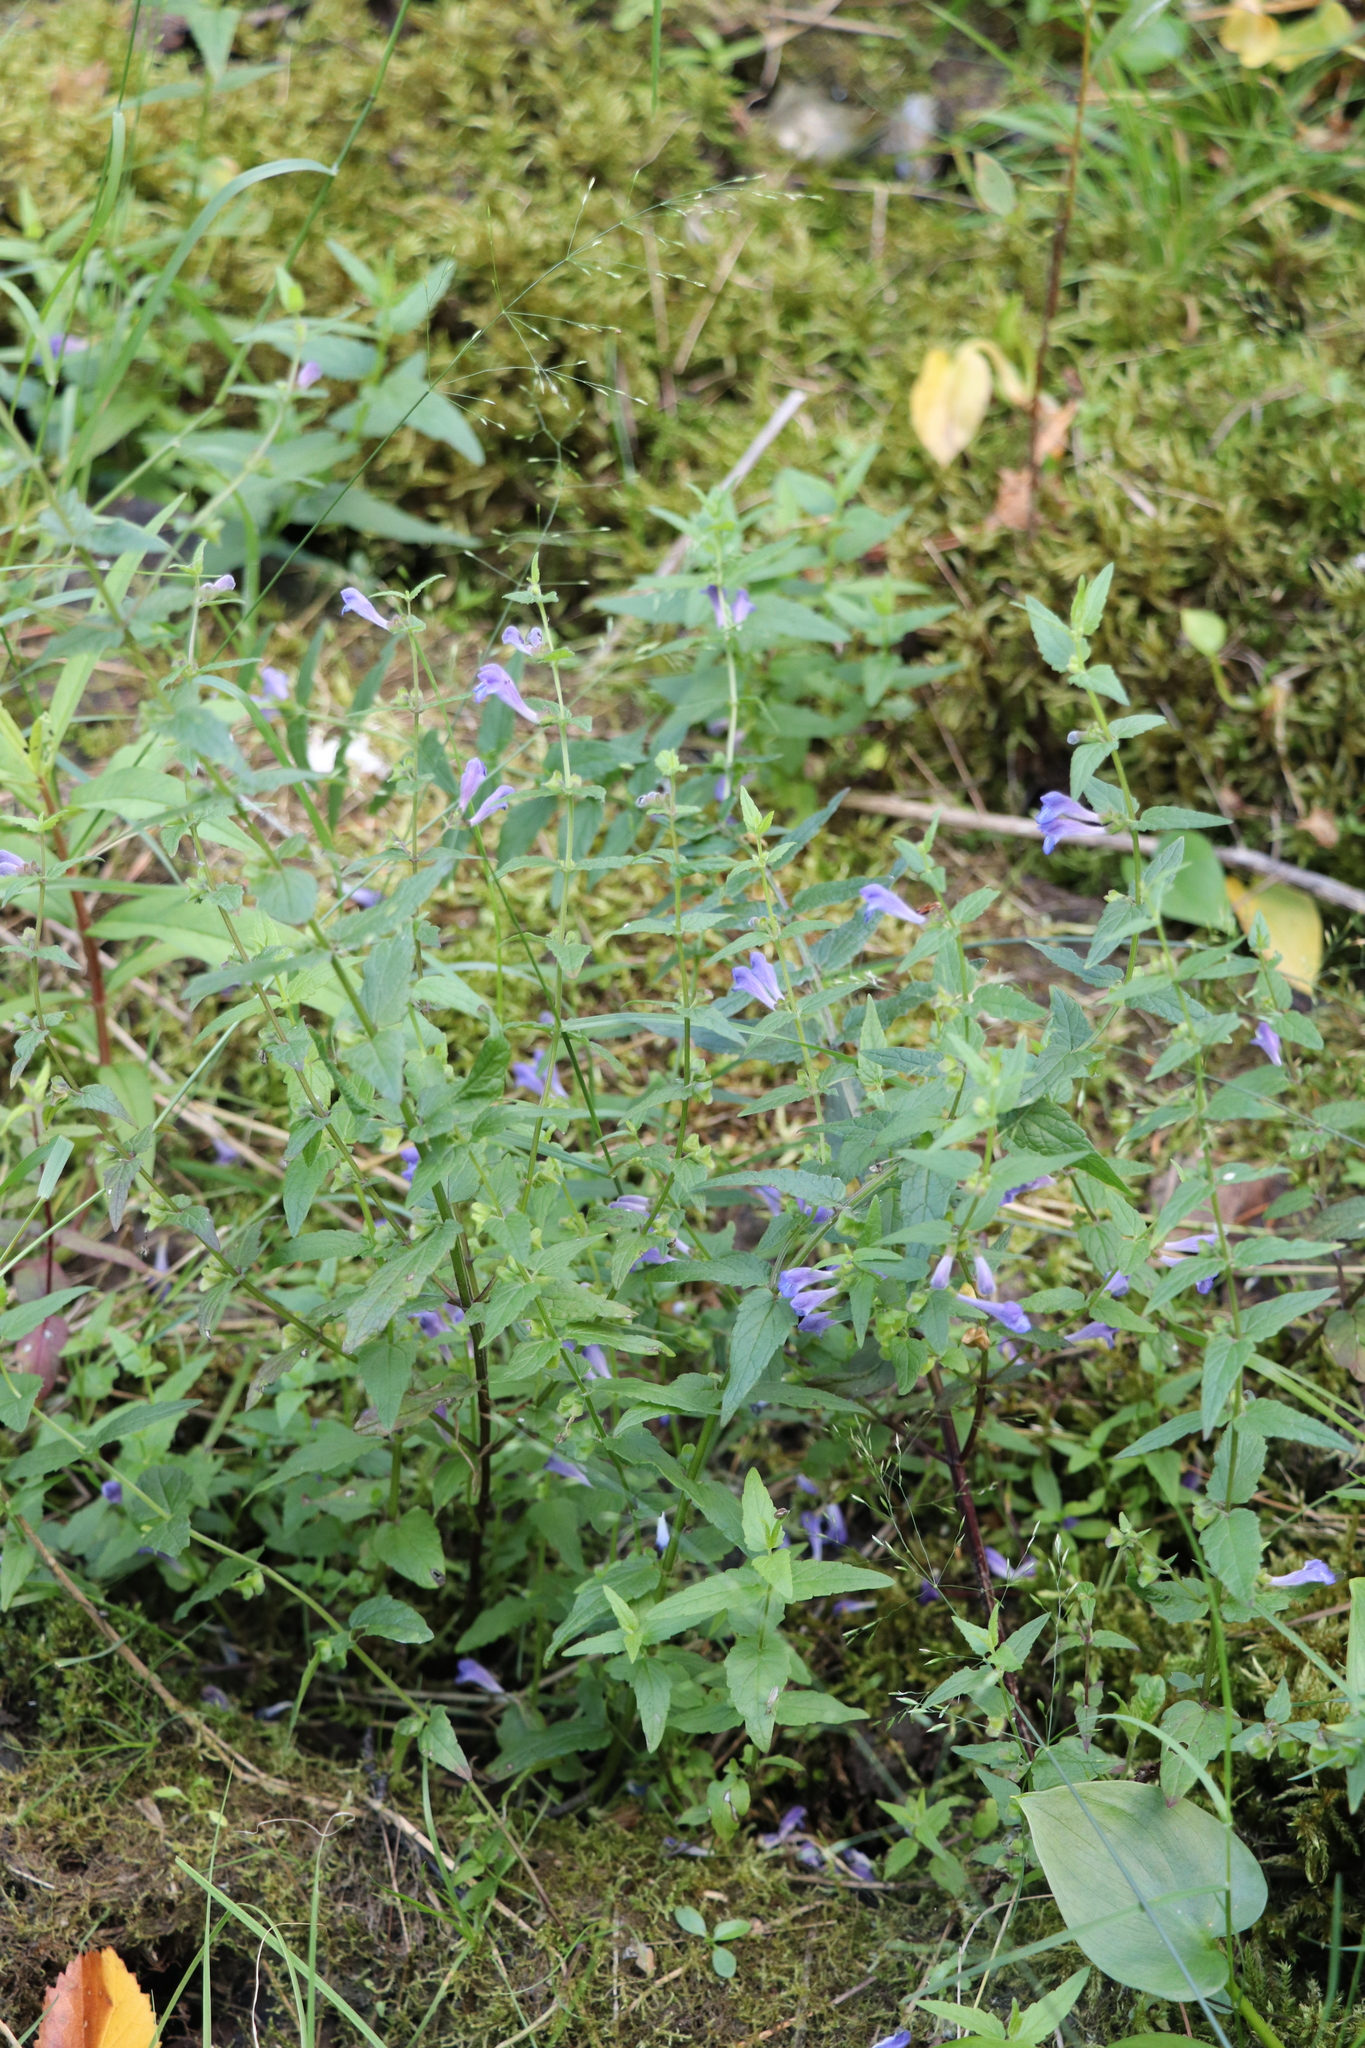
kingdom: Plantae
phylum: Tracheophyta
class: Magnoliopsida
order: Lamiales
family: Lamiaceae
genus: Scutellaria
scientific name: Scutellaria galericulata
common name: Skullcap
